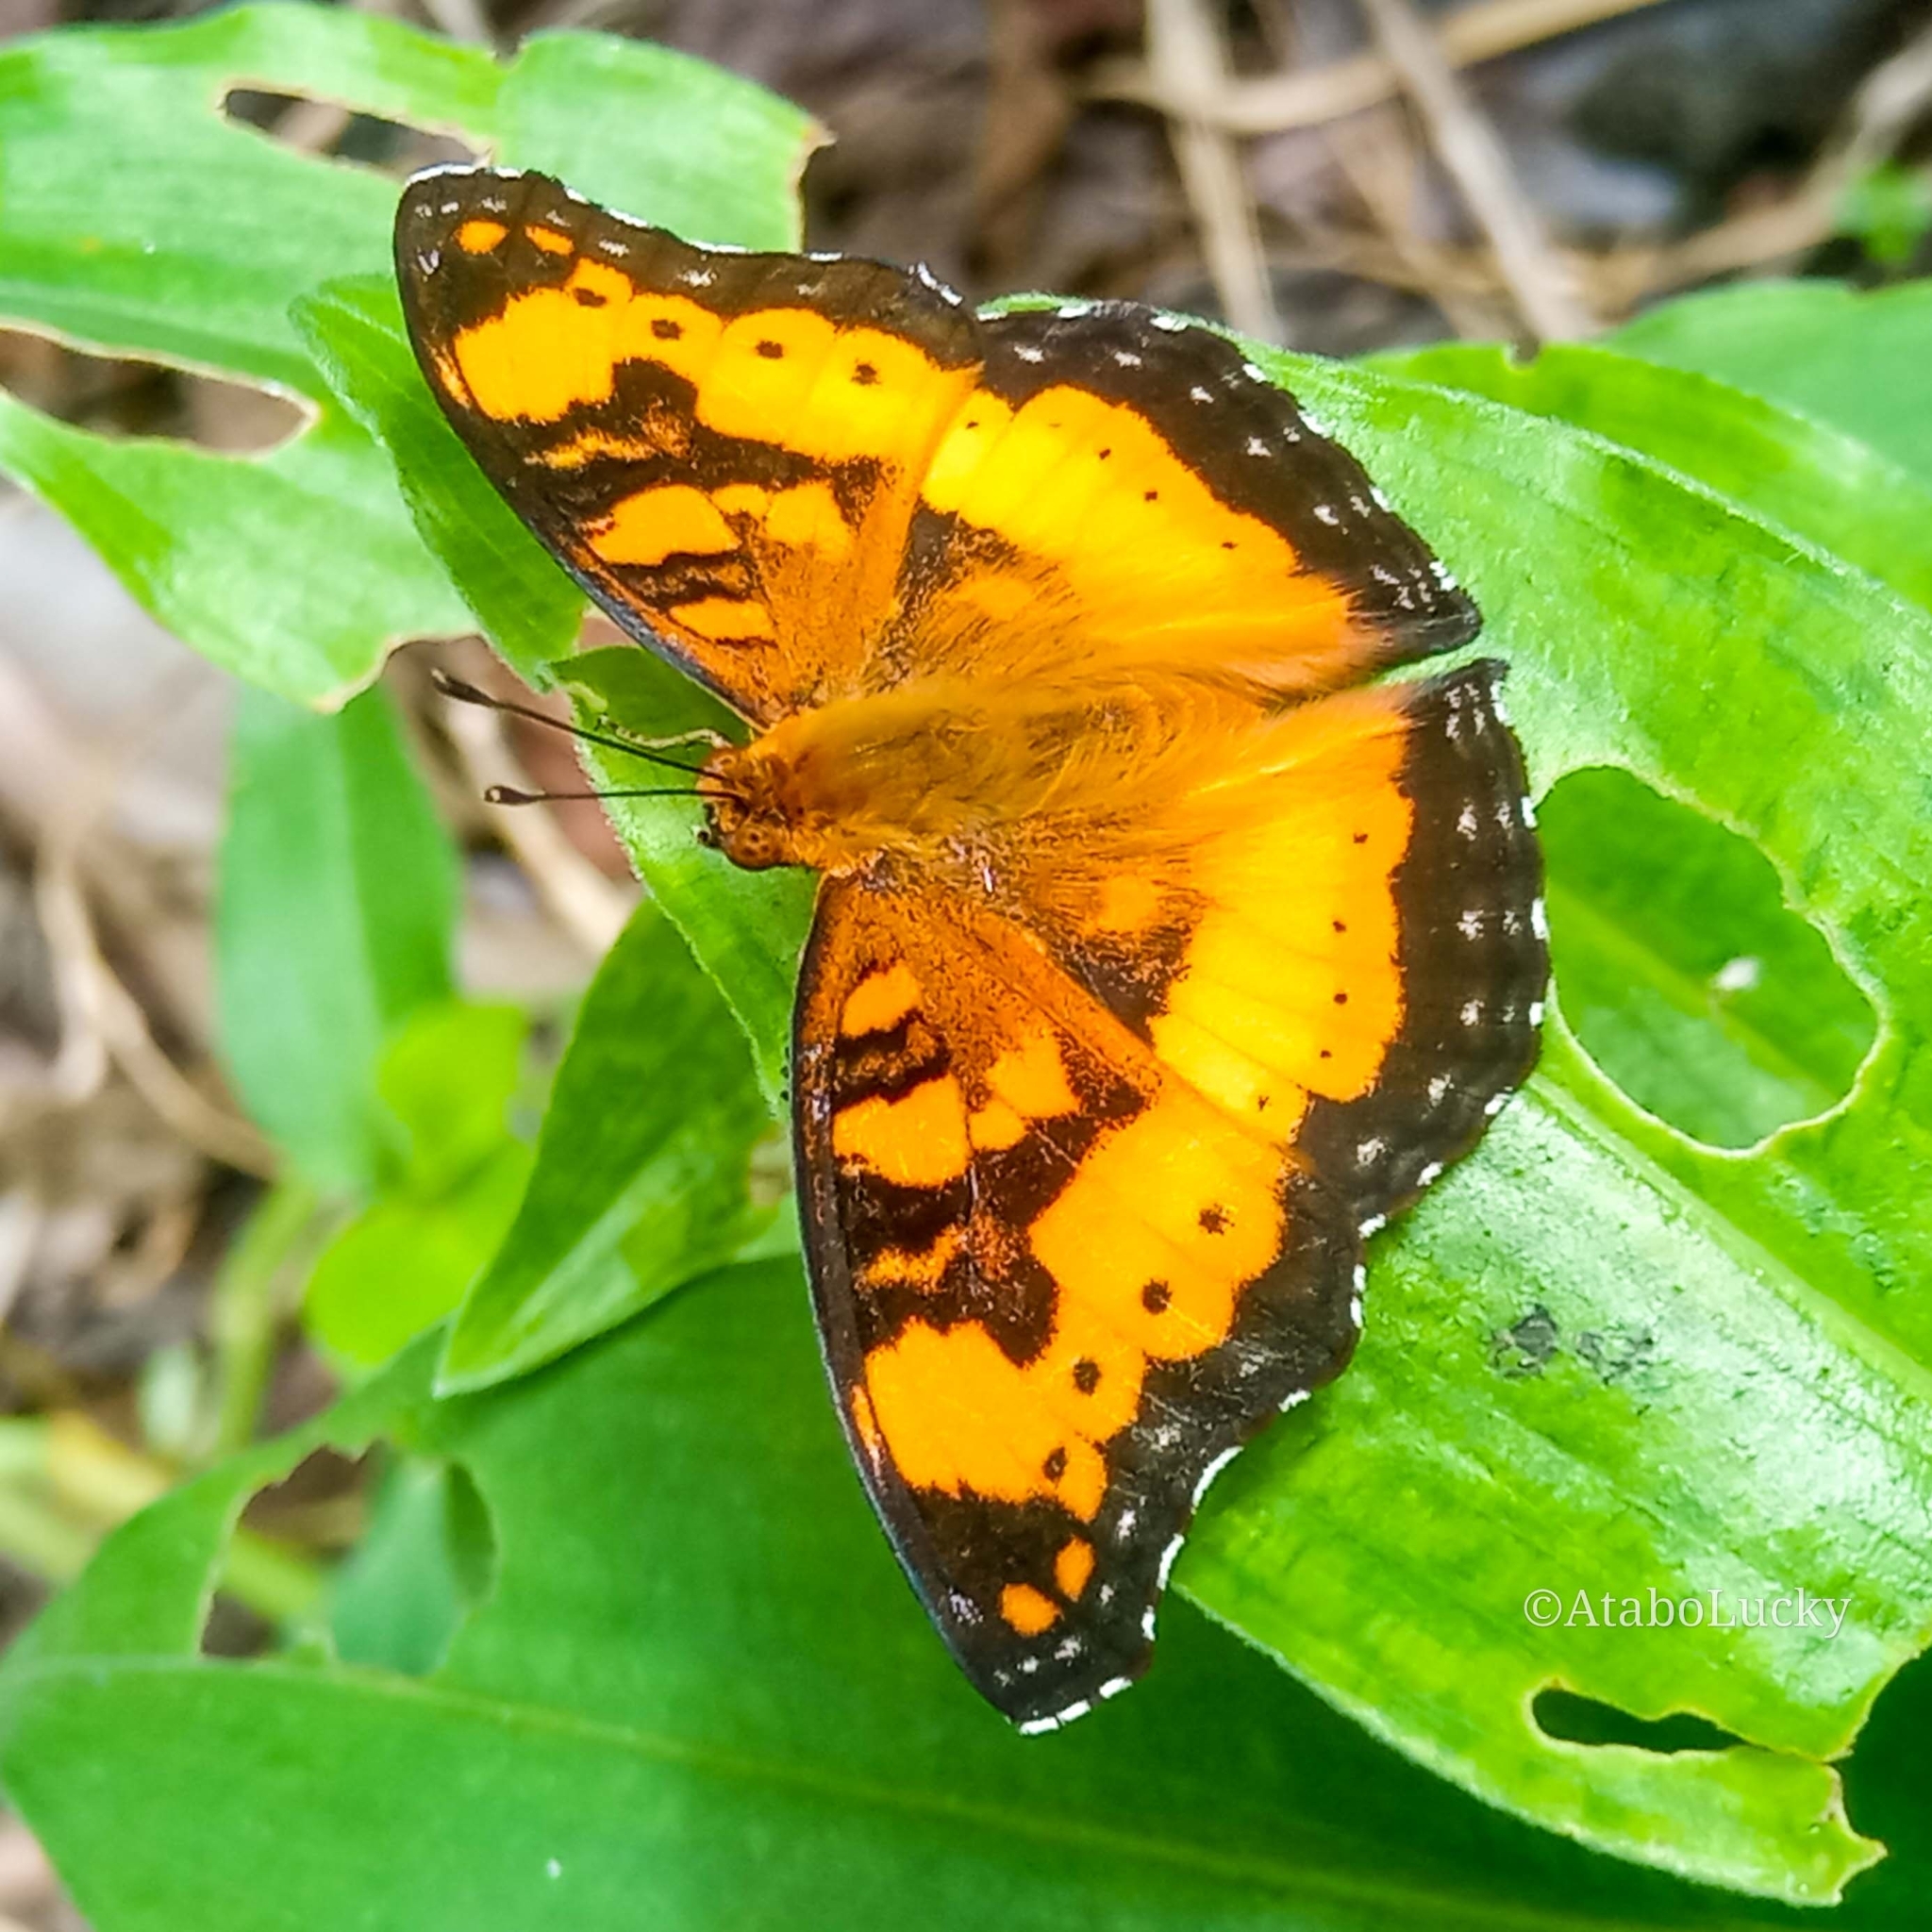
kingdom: Animalia
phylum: Arthropoda
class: Insecta
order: Lepidoptera
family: Nymphalidae
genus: Junonia
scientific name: Junonia antilope
